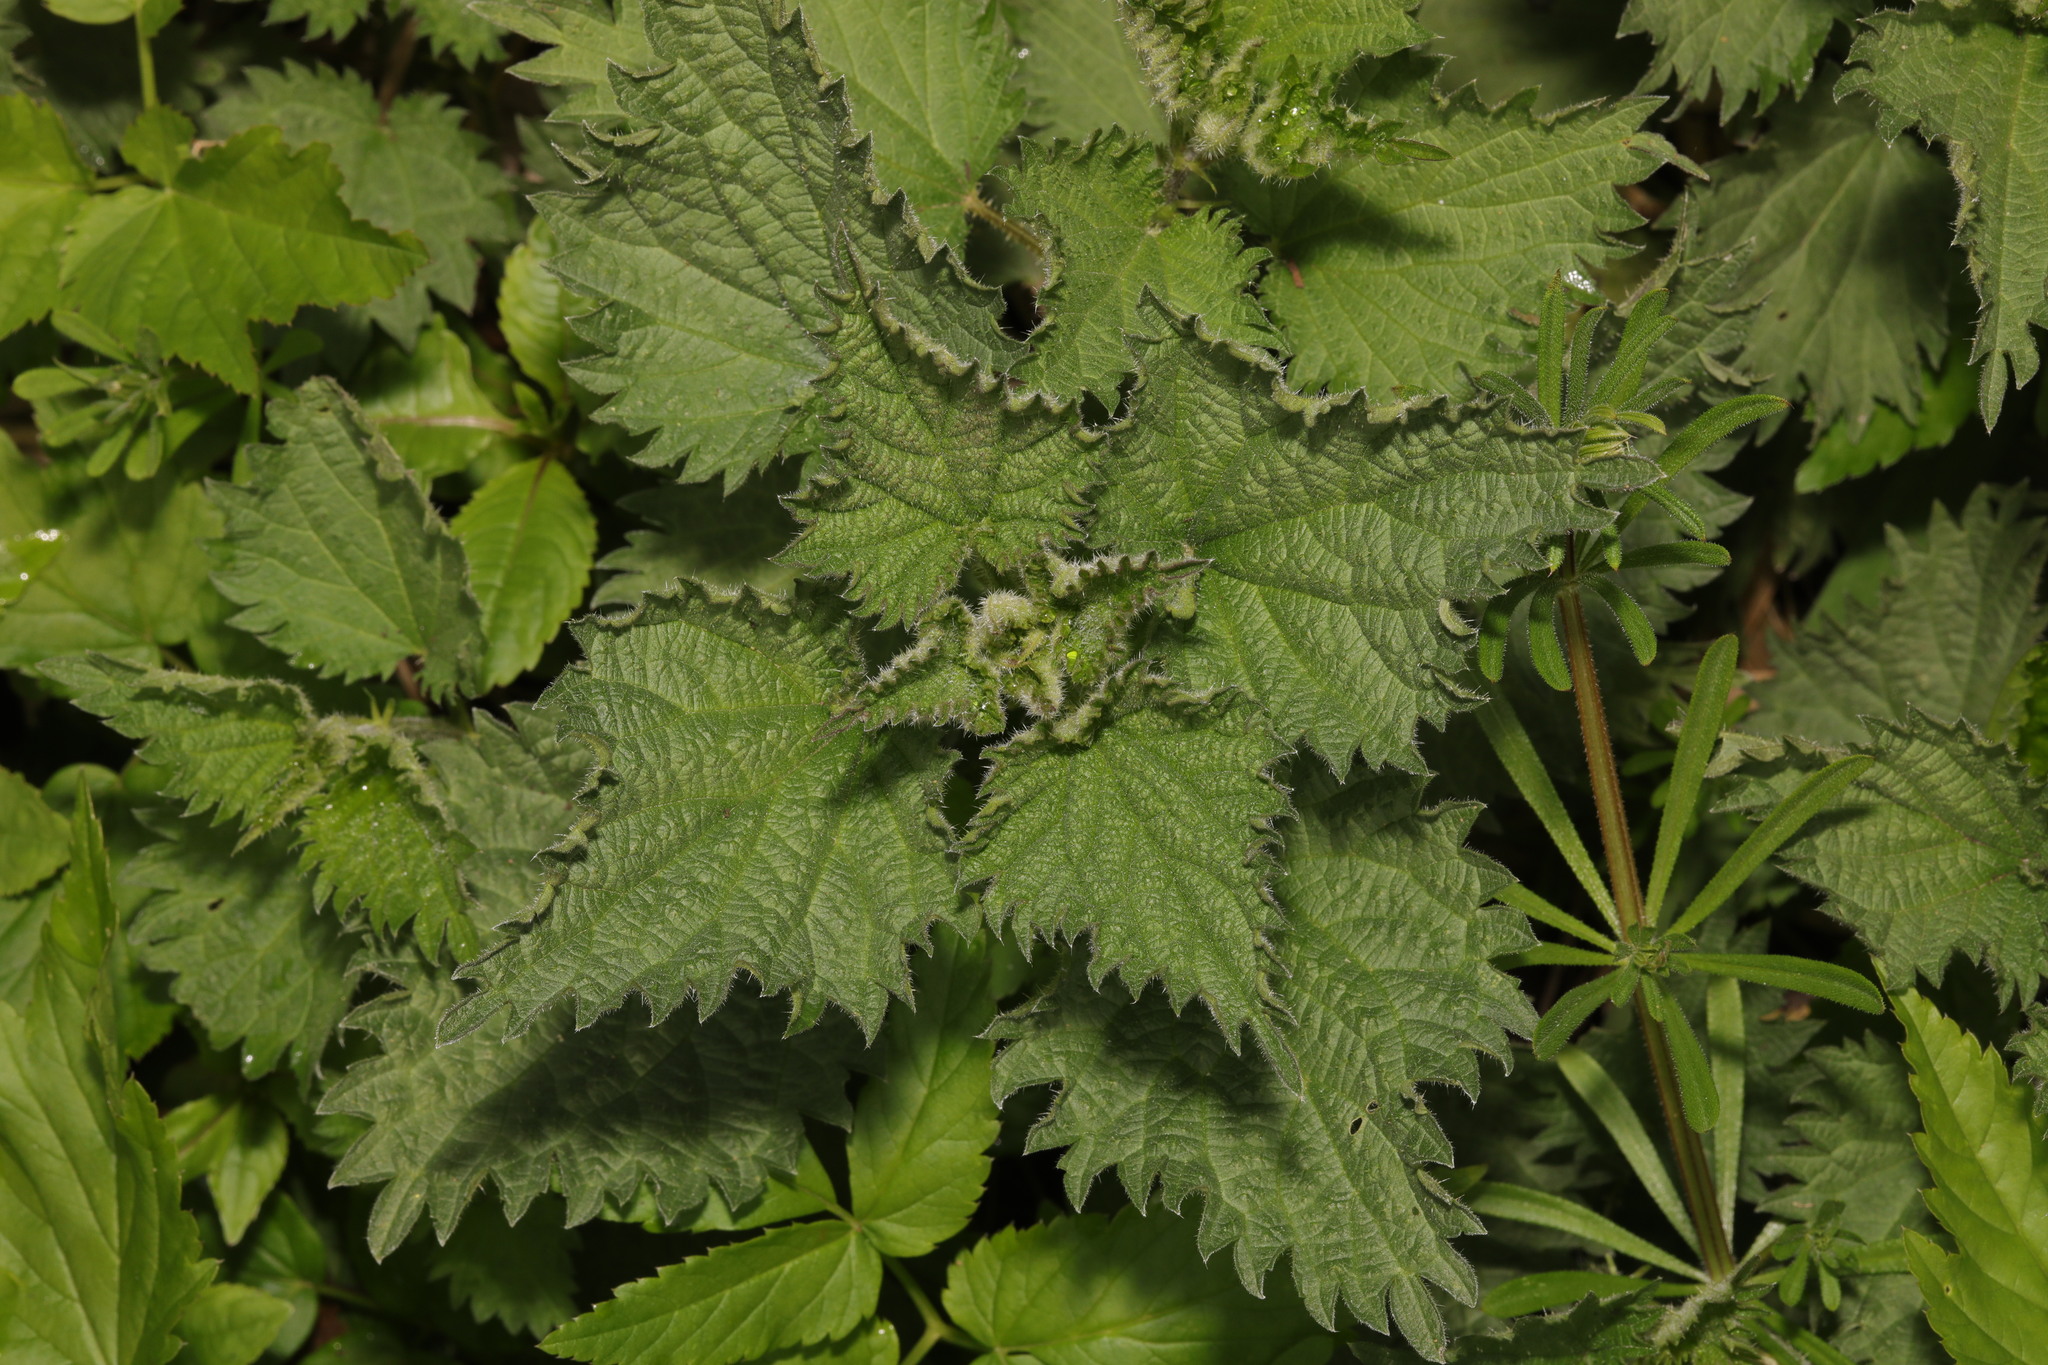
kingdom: Plantae
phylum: Tracheophyta
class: Magnoliopsida
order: Rosales
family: Urticaceae
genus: Urtica
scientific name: Urtica dioica
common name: Common nettle
